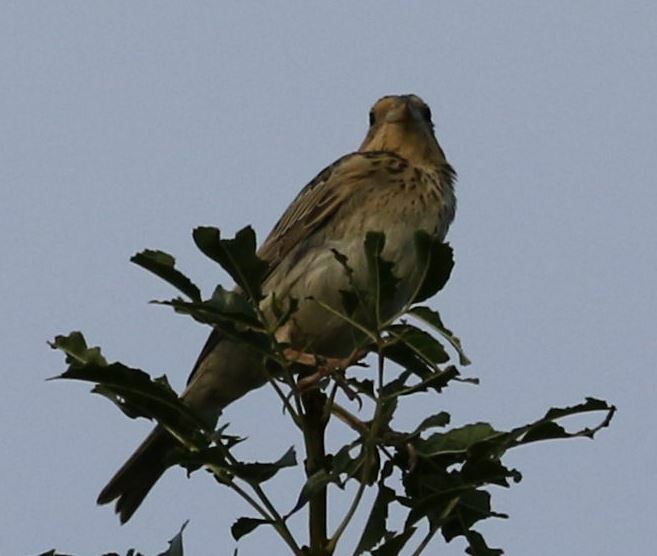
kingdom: Animalia
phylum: Chordata
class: Aves
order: Passeriformes
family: Emberizidae
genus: Emberiza
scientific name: Emberiza calandra
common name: Corn bunting
